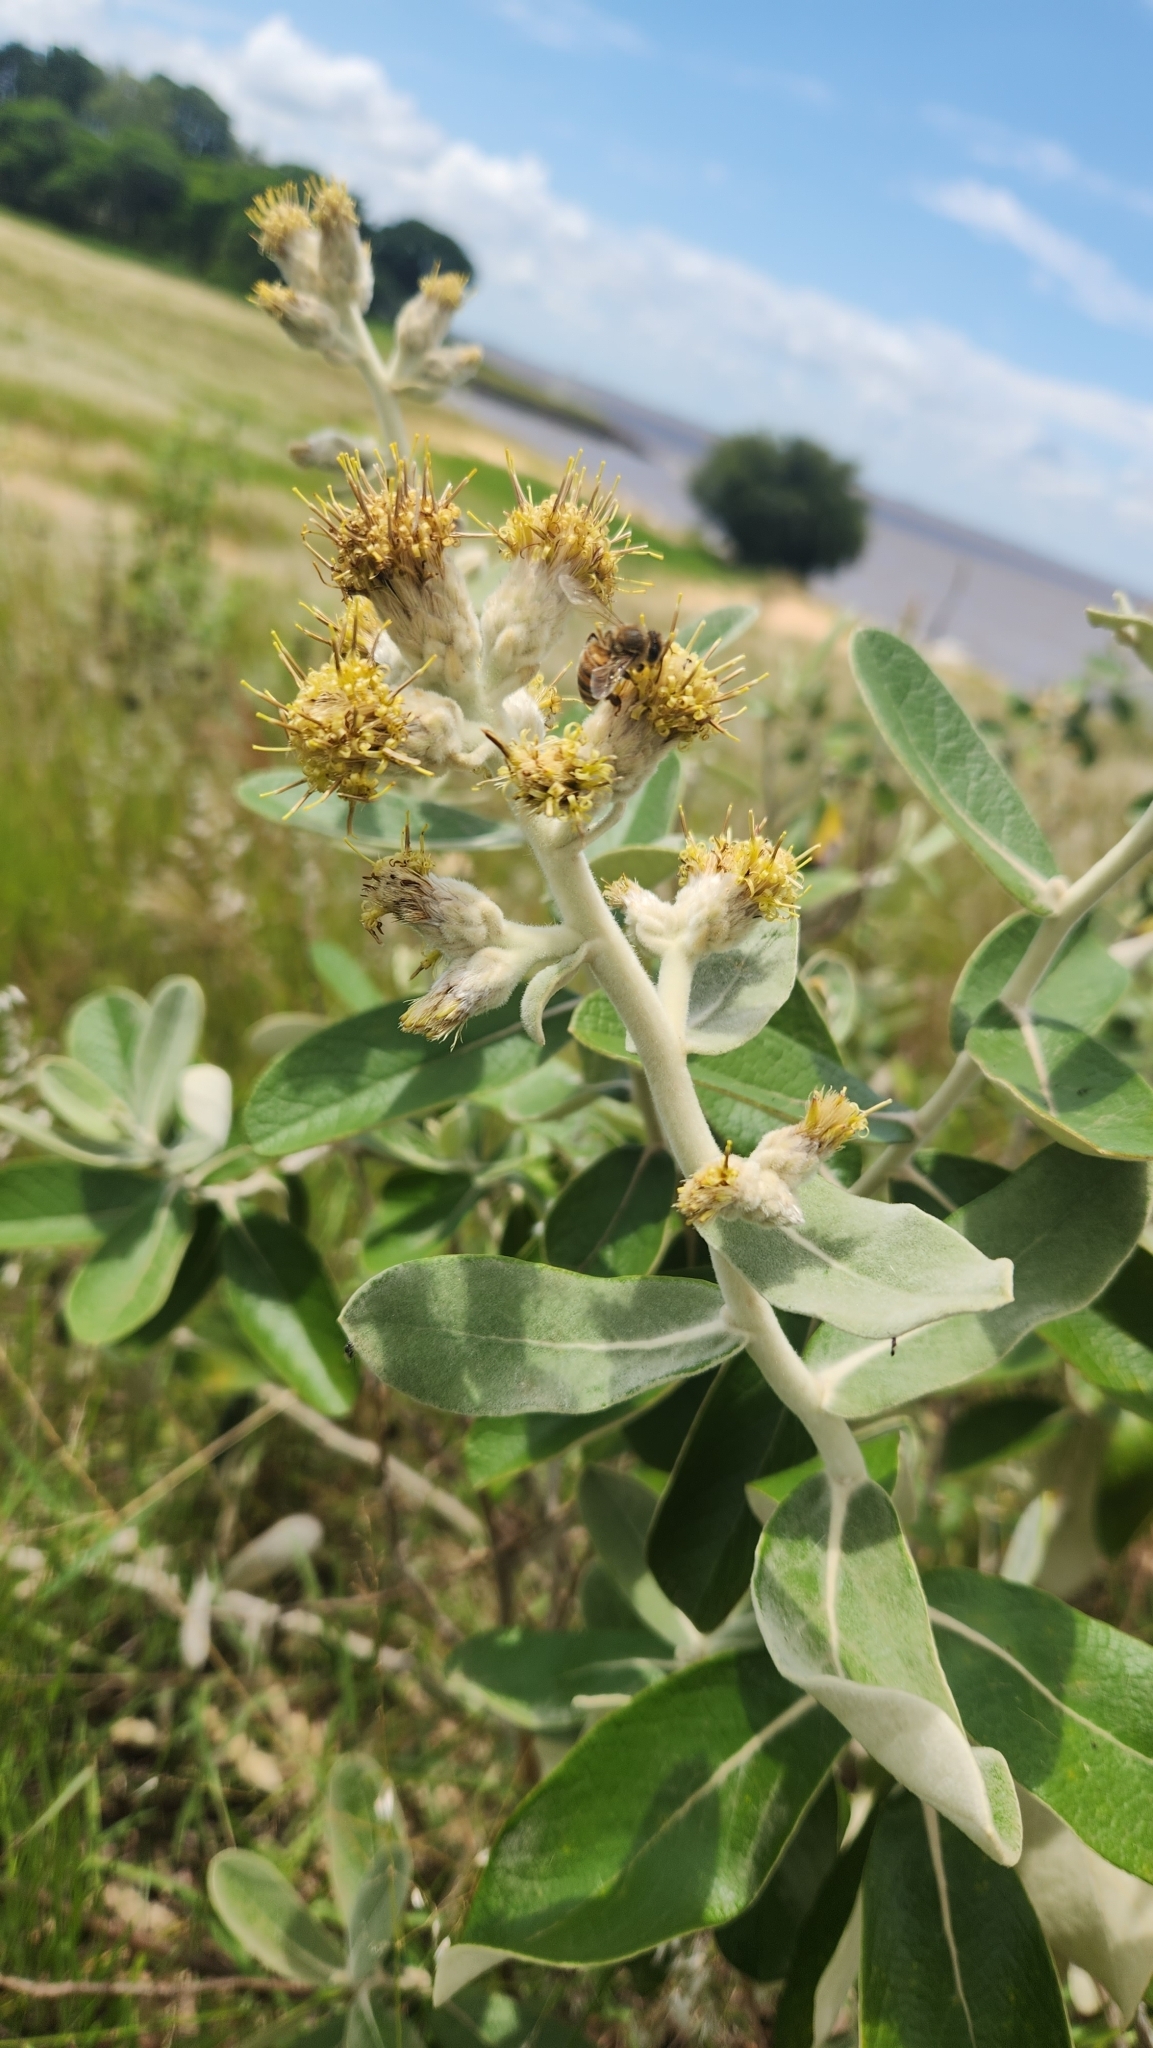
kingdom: Plantae
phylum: Tracheophyta
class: Magnoliopsida
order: Asterales
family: Asteraceae
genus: Moquiniastrum
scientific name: Moquiniastrum cordatum
